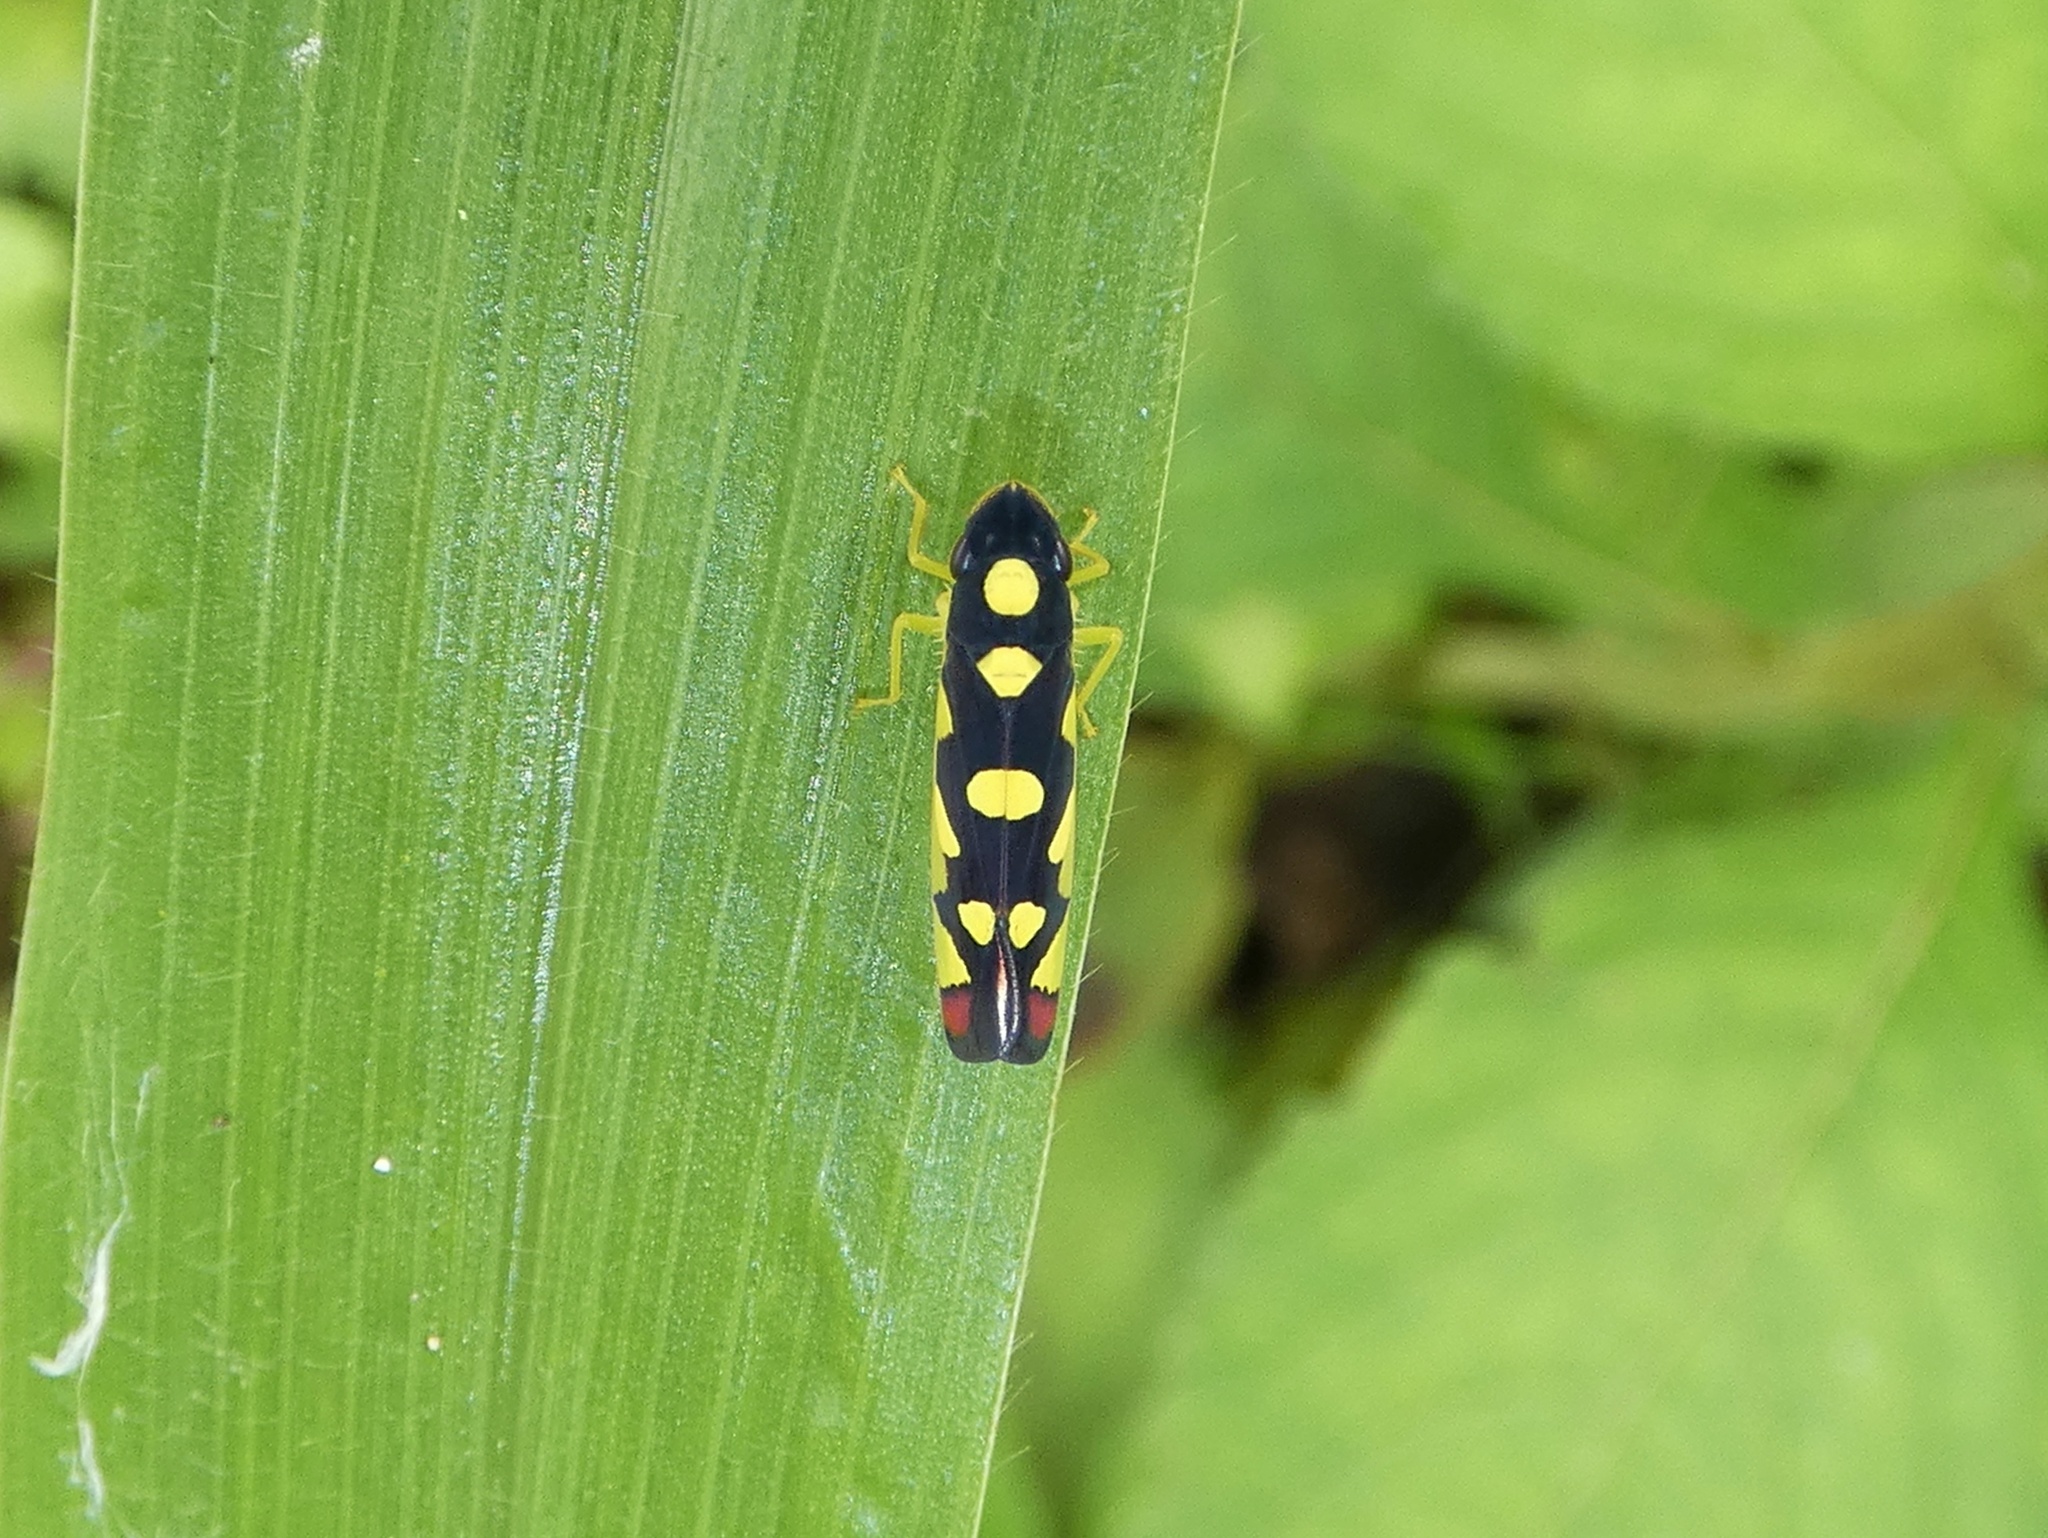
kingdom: Animalia
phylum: Arthropoda
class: Insecta
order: Hemiptera
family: Cicadellidae
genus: Baleja
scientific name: Baleja flavoguttata
